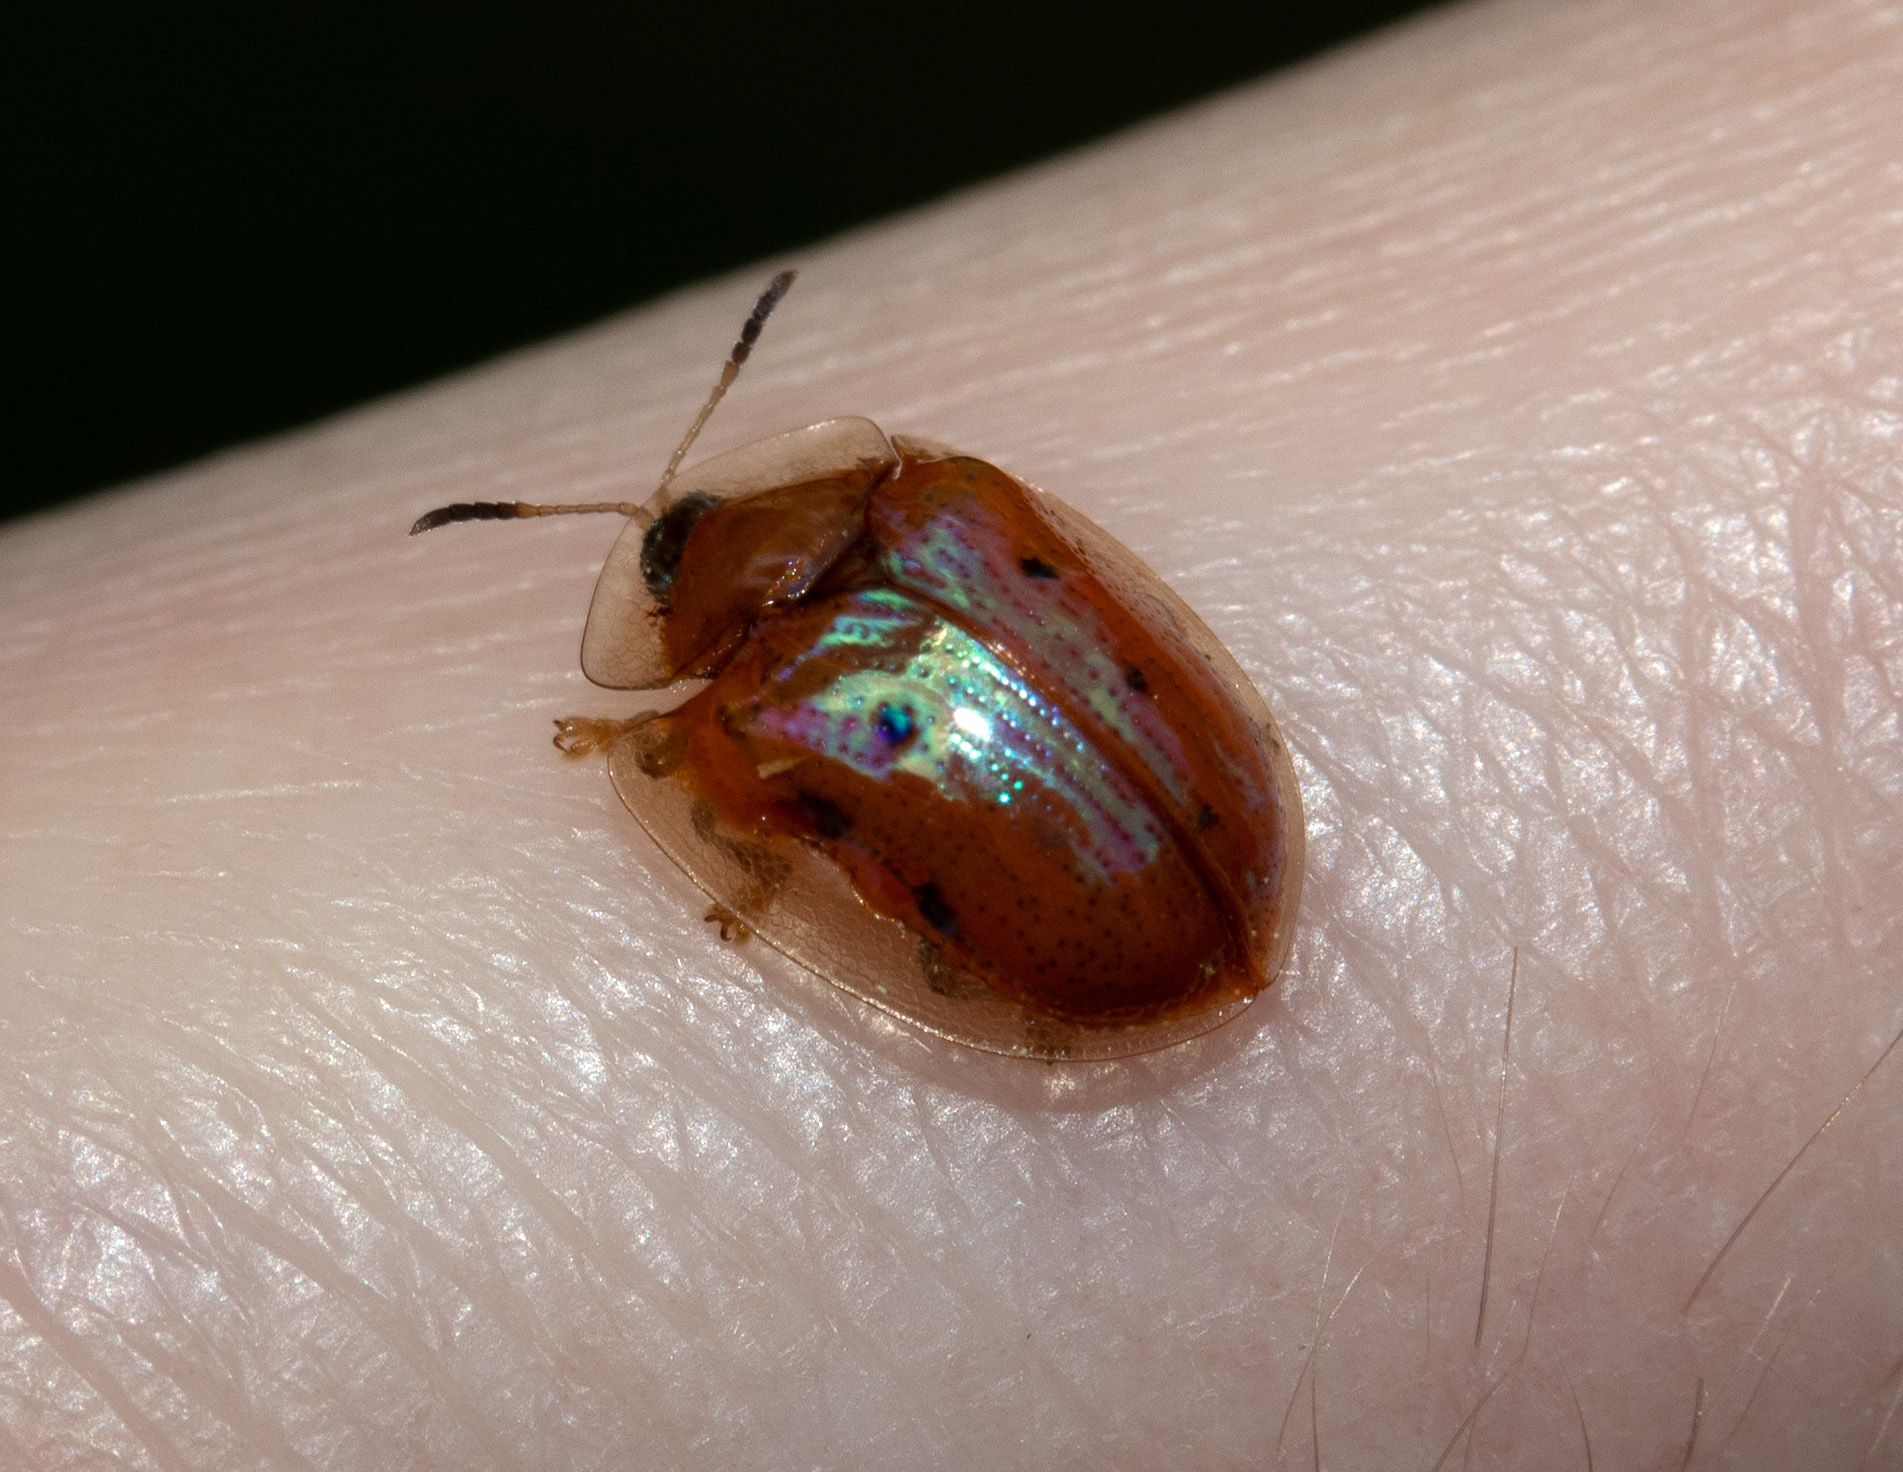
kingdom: Animalia
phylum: Arthropoda
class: Insecta
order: Coleoptera
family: Chrysomelidae
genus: Charidotella
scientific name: Charidotella sexpunctata
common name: Golden tortoise beetle
